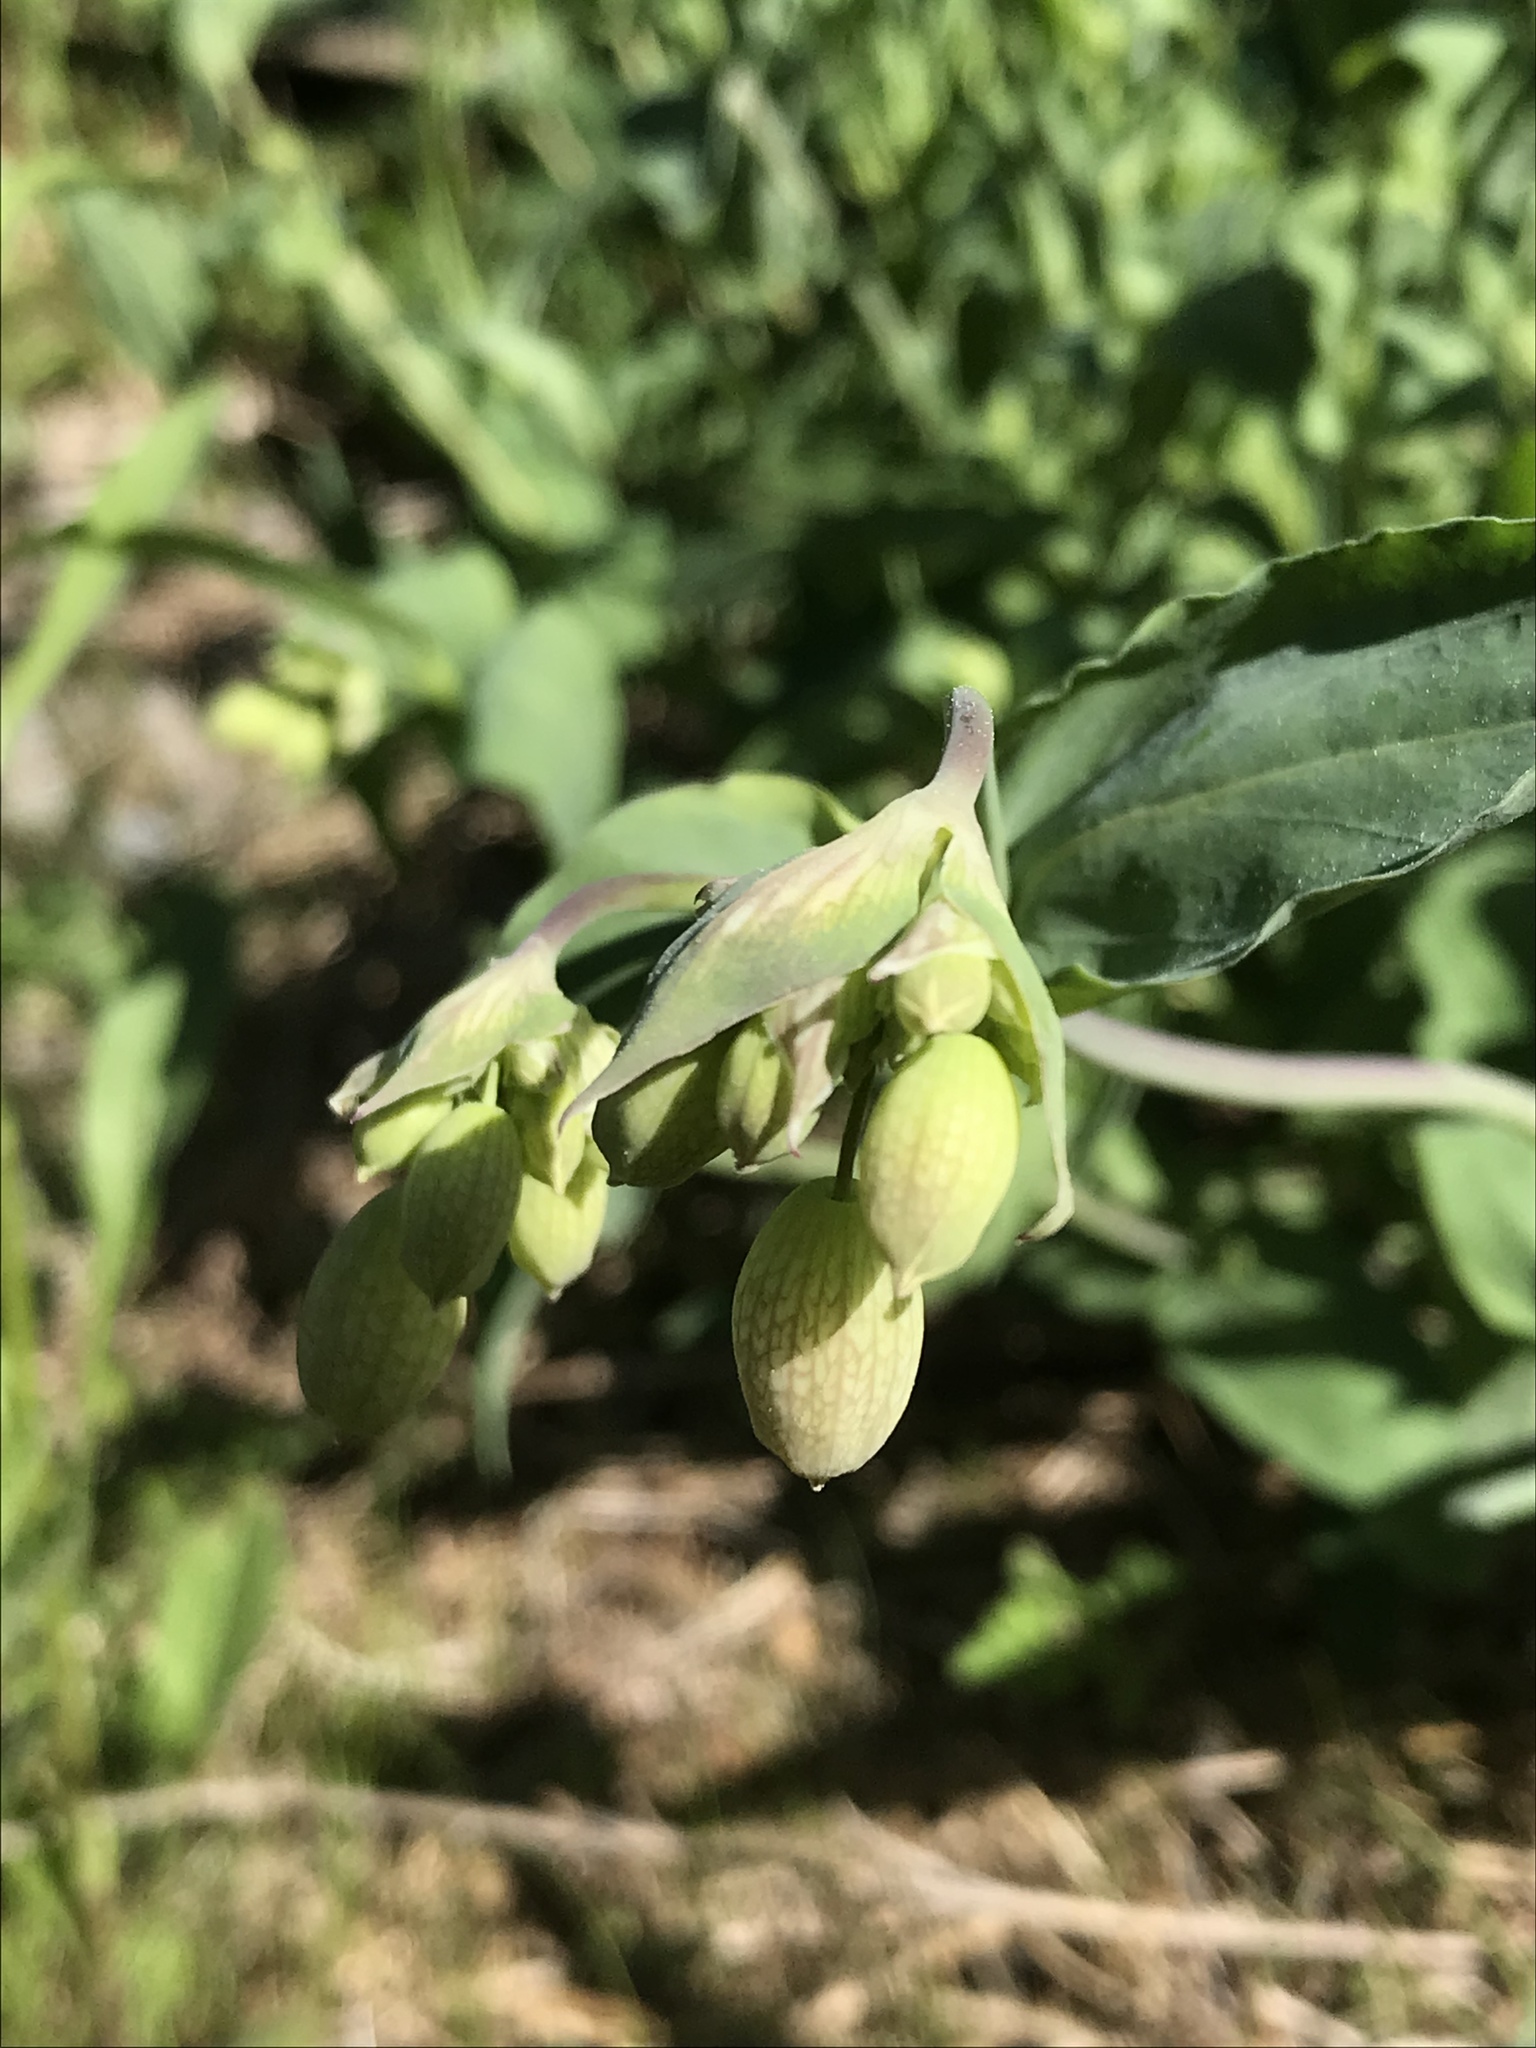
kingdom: Plantae
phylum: Tracheophyta
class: Magnoliopsida
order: Caryophyllales
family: Caryophyllaceae
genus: Silene
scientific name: Silene vulgaris
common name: Bladder campion
